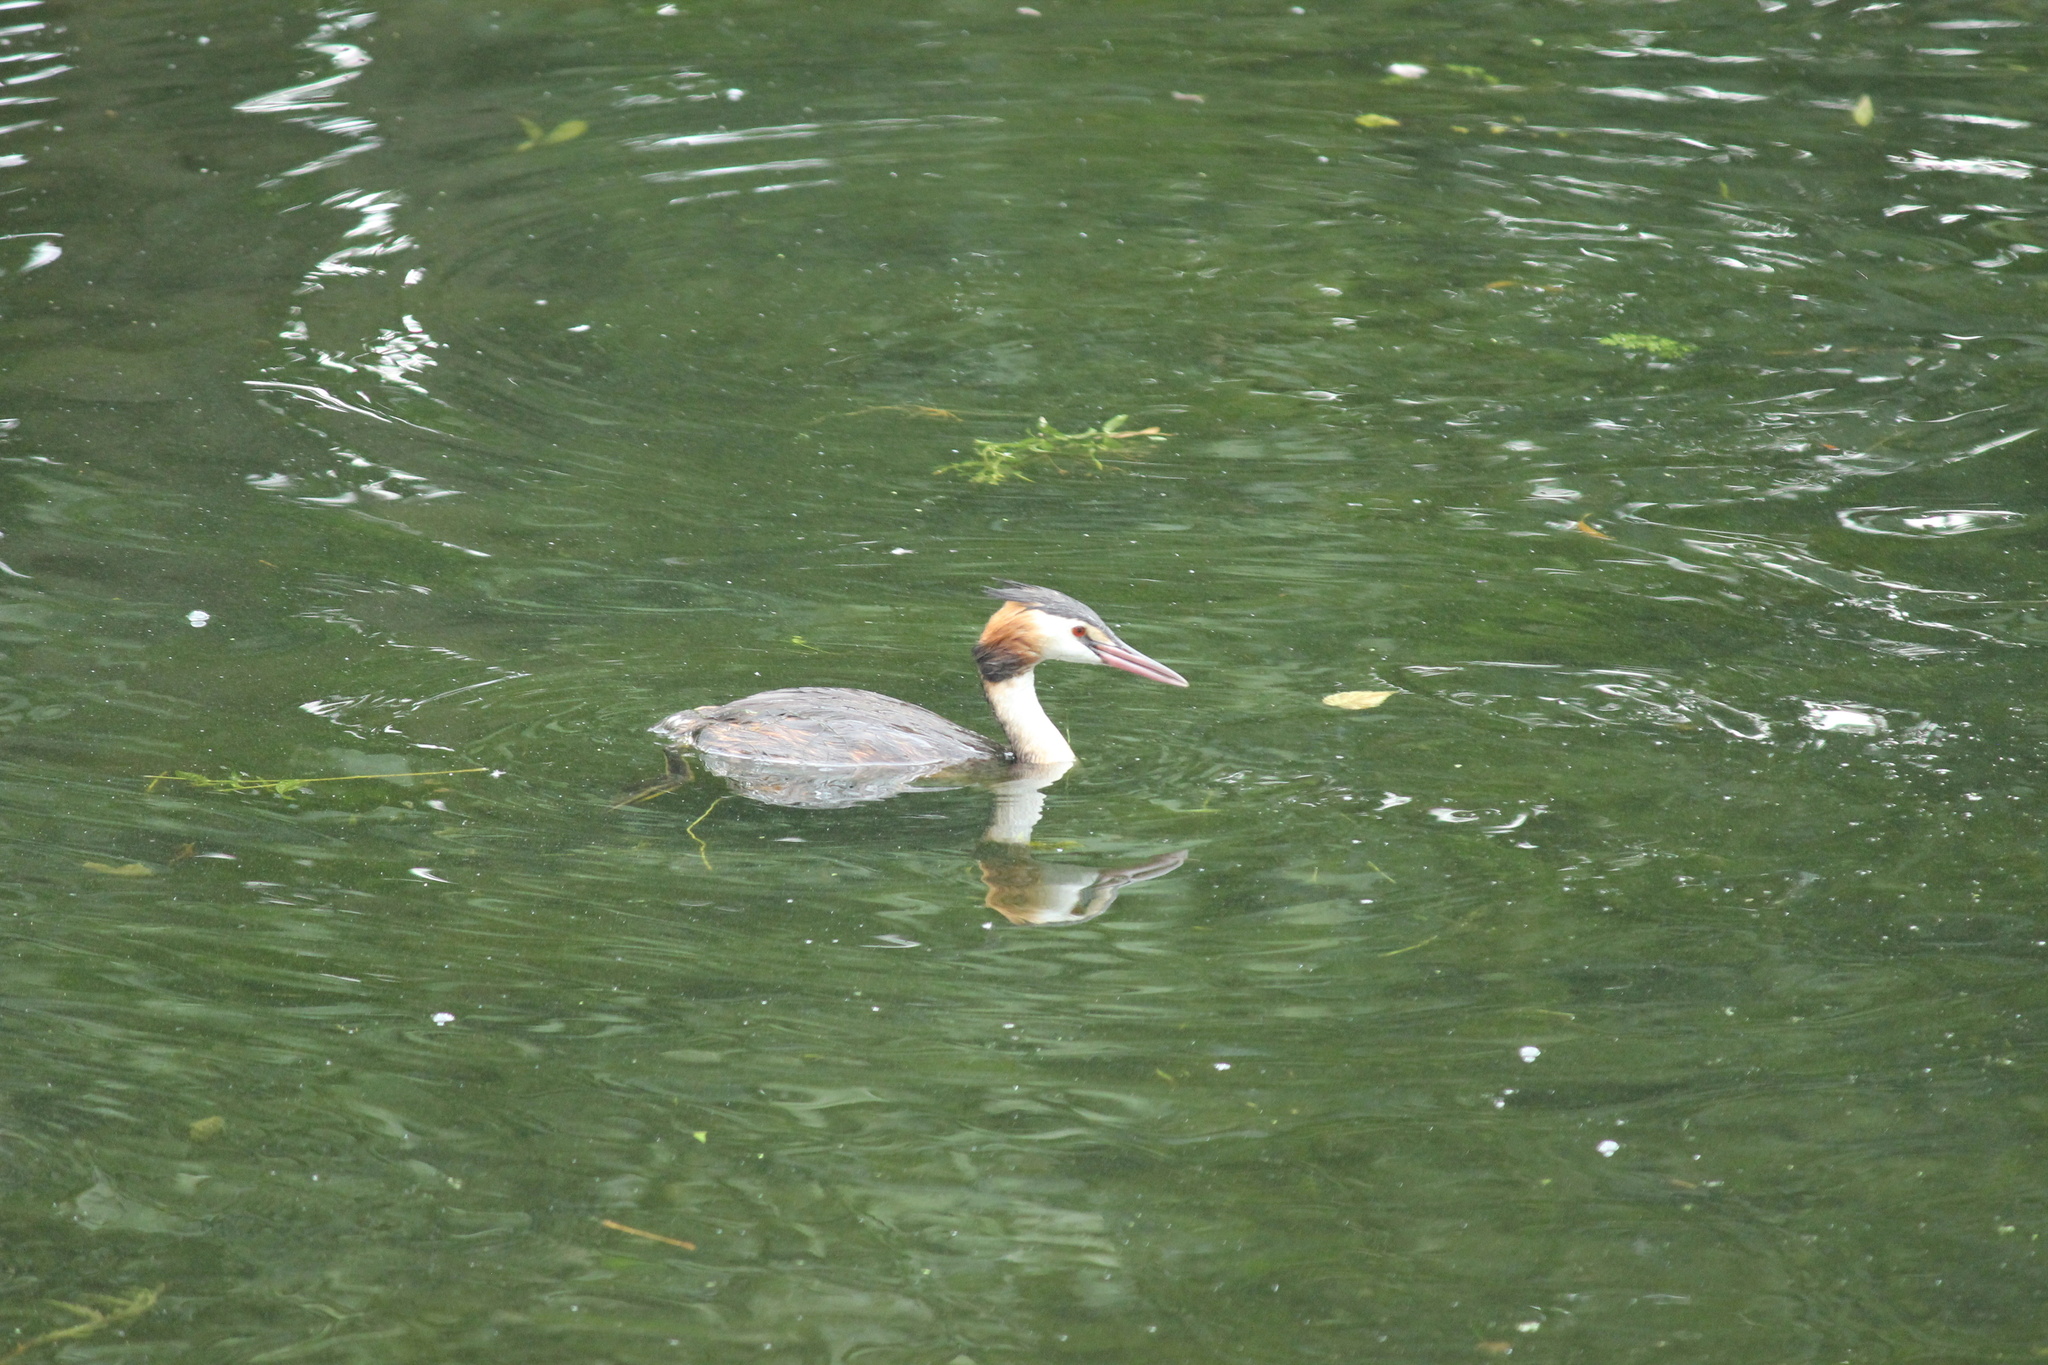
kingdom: Animalia
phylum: Chordata
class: Aves
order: Podicipediformes
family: Podicipedidae
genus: Podiceps
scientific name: Podiceps cristatus
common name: Great crested grebe
